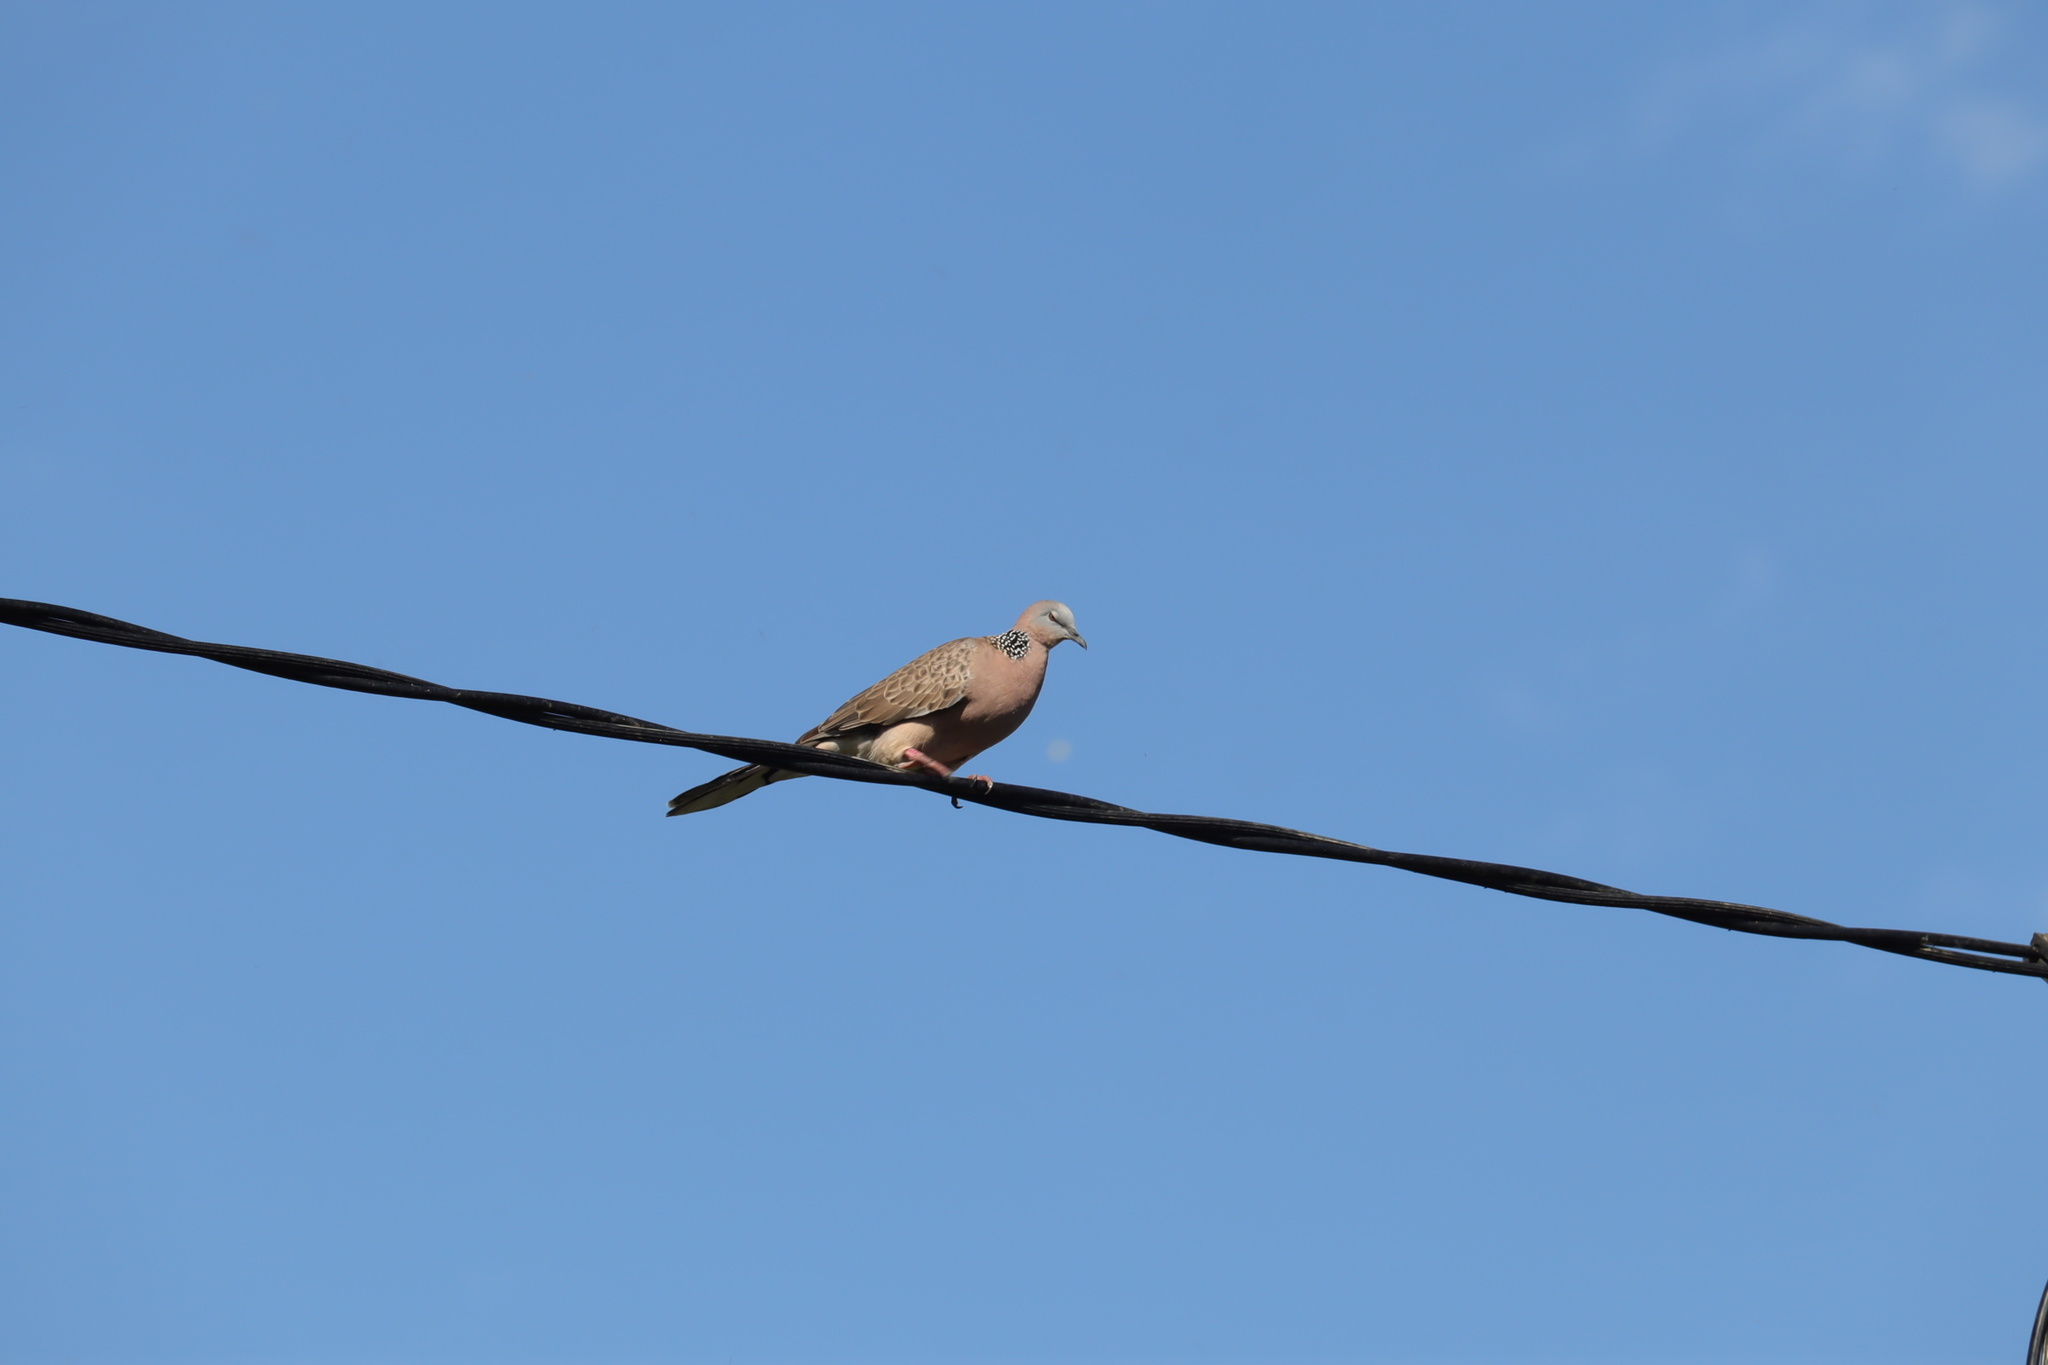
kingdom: Animalia
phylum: Chordata
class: Aves
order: Columbiformes
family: Columbidae
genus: Spilopelia
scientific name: Spilopelia chinensis
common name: Spotted dove
